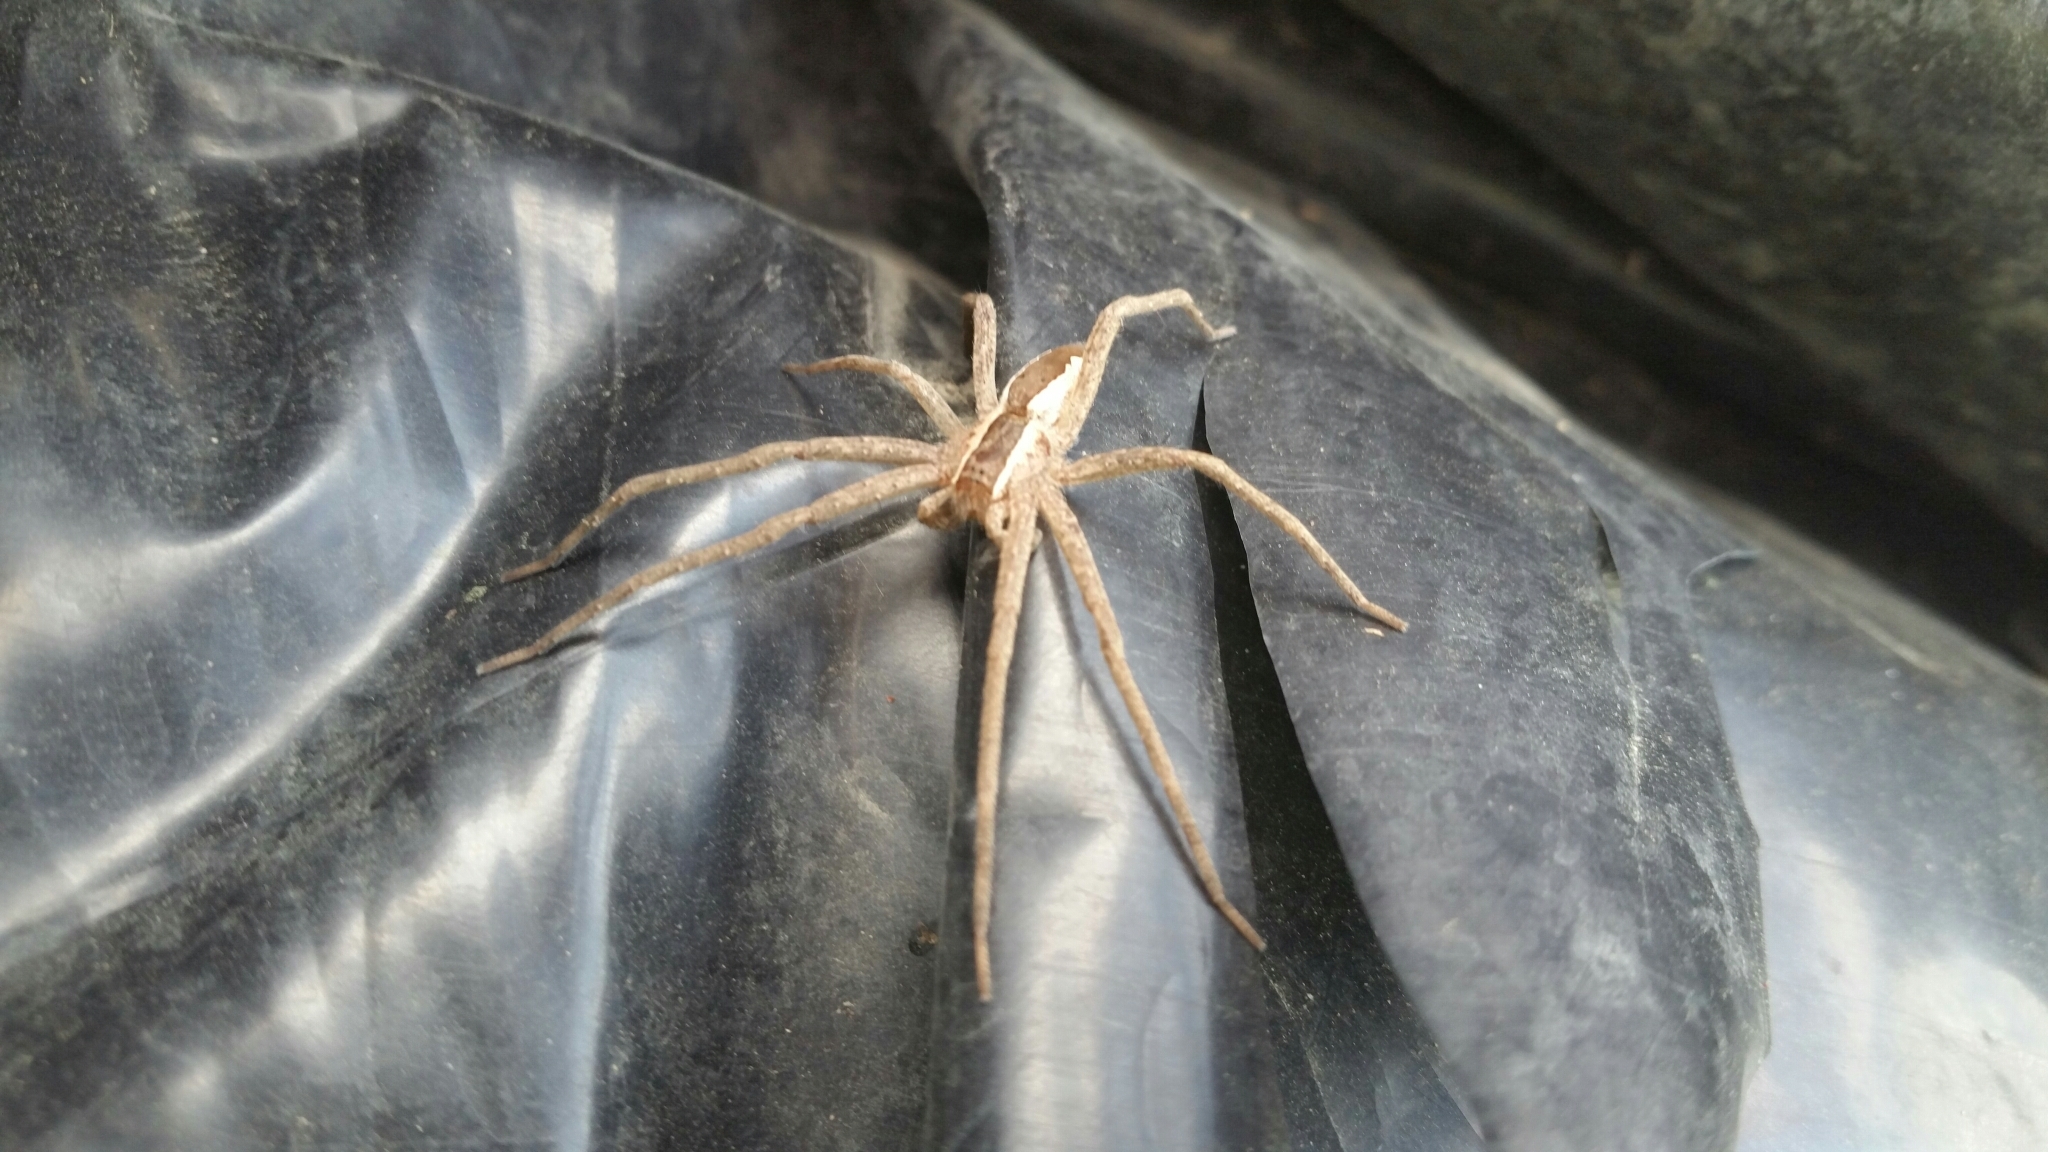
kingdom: Animalia
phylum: Arthropoda
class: Arachnida
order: Araneae
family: Pisauridae
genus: Pisaurina
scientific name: Pisaurina mira
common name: American nursery web spider
